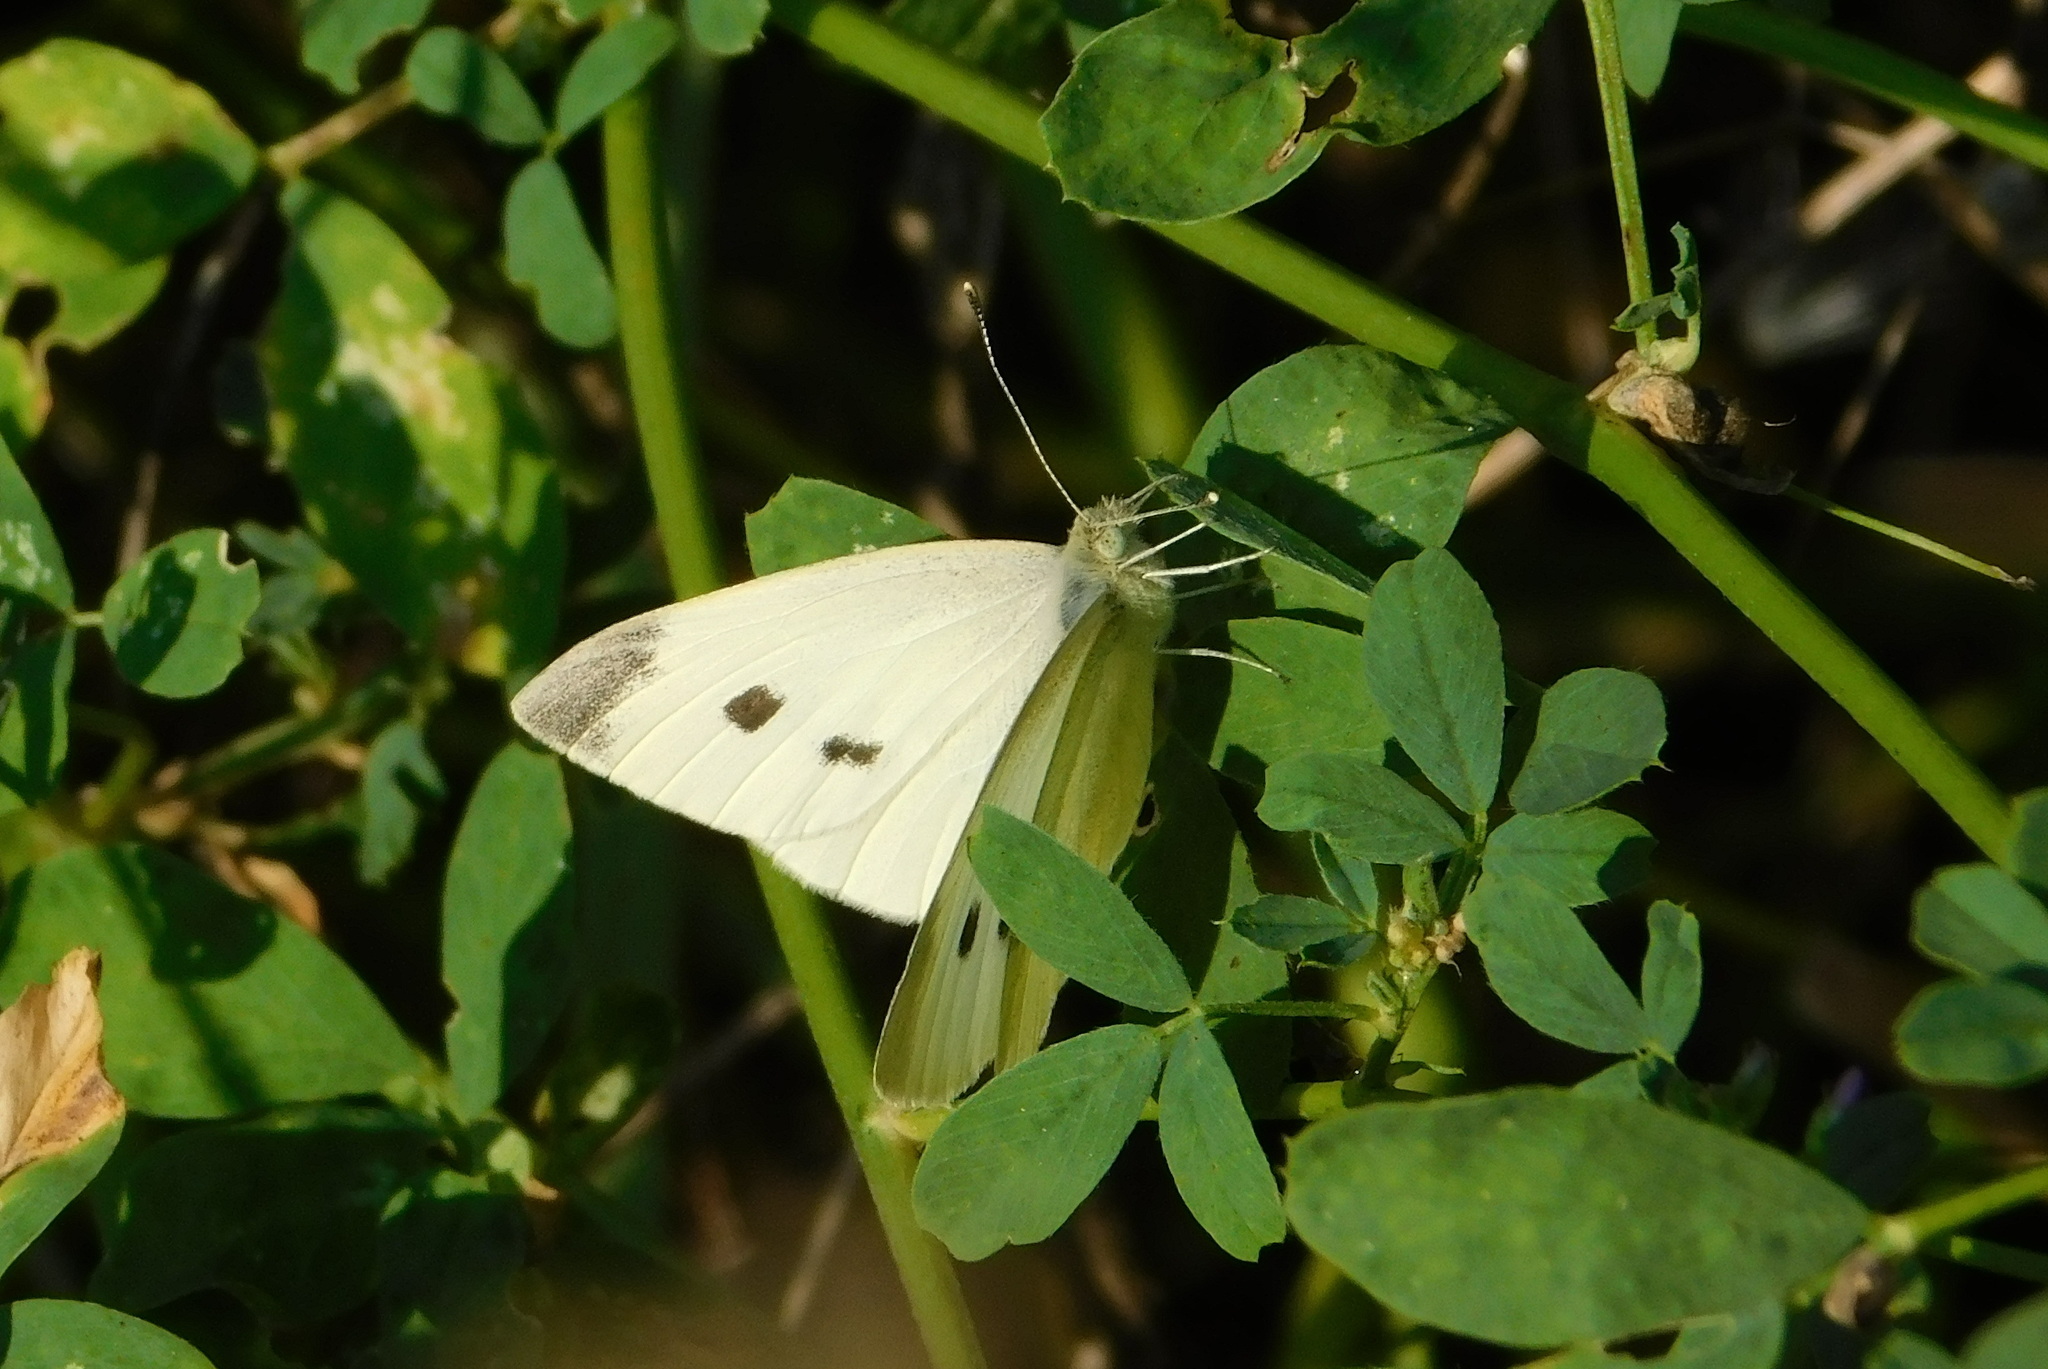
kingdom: Animalia
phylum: Arthropoda
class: Insecta
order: Lepidoptera
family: Pieridae
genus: Pieris
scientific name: Pieris rapae
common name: Small white
